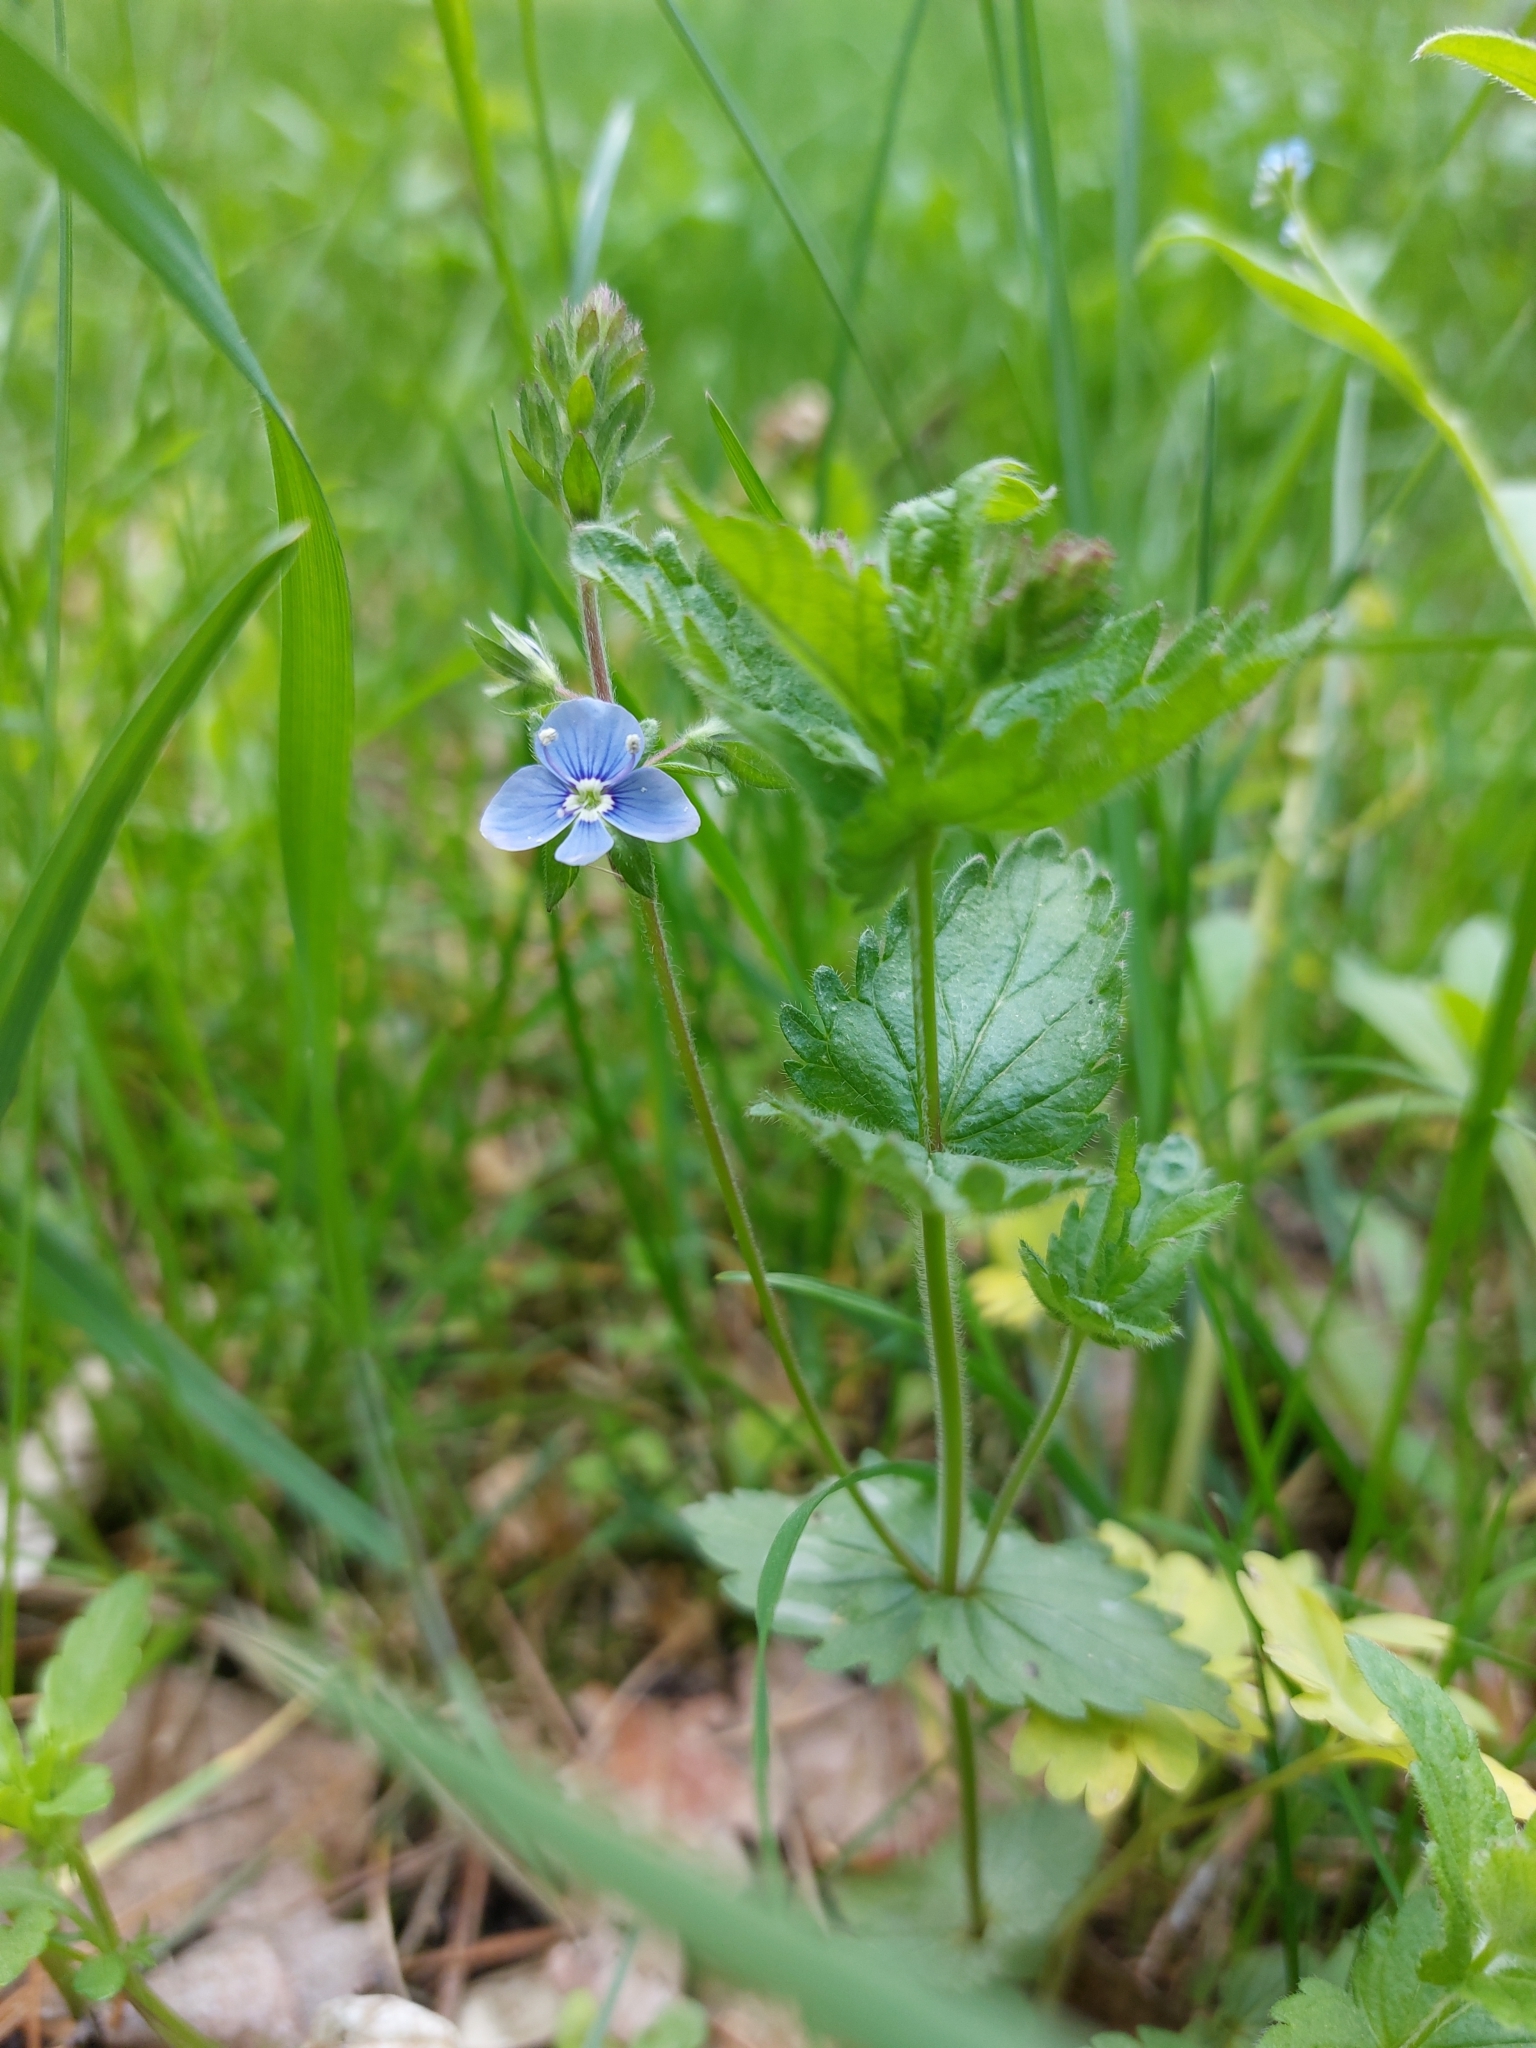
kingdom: Plantae
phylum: Tracheophyta
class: Magnoliopsida
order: Lamiales
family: Plantaginaceae
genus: Veronica
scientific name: Veronica chamaedrys
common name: Germander speedwell
